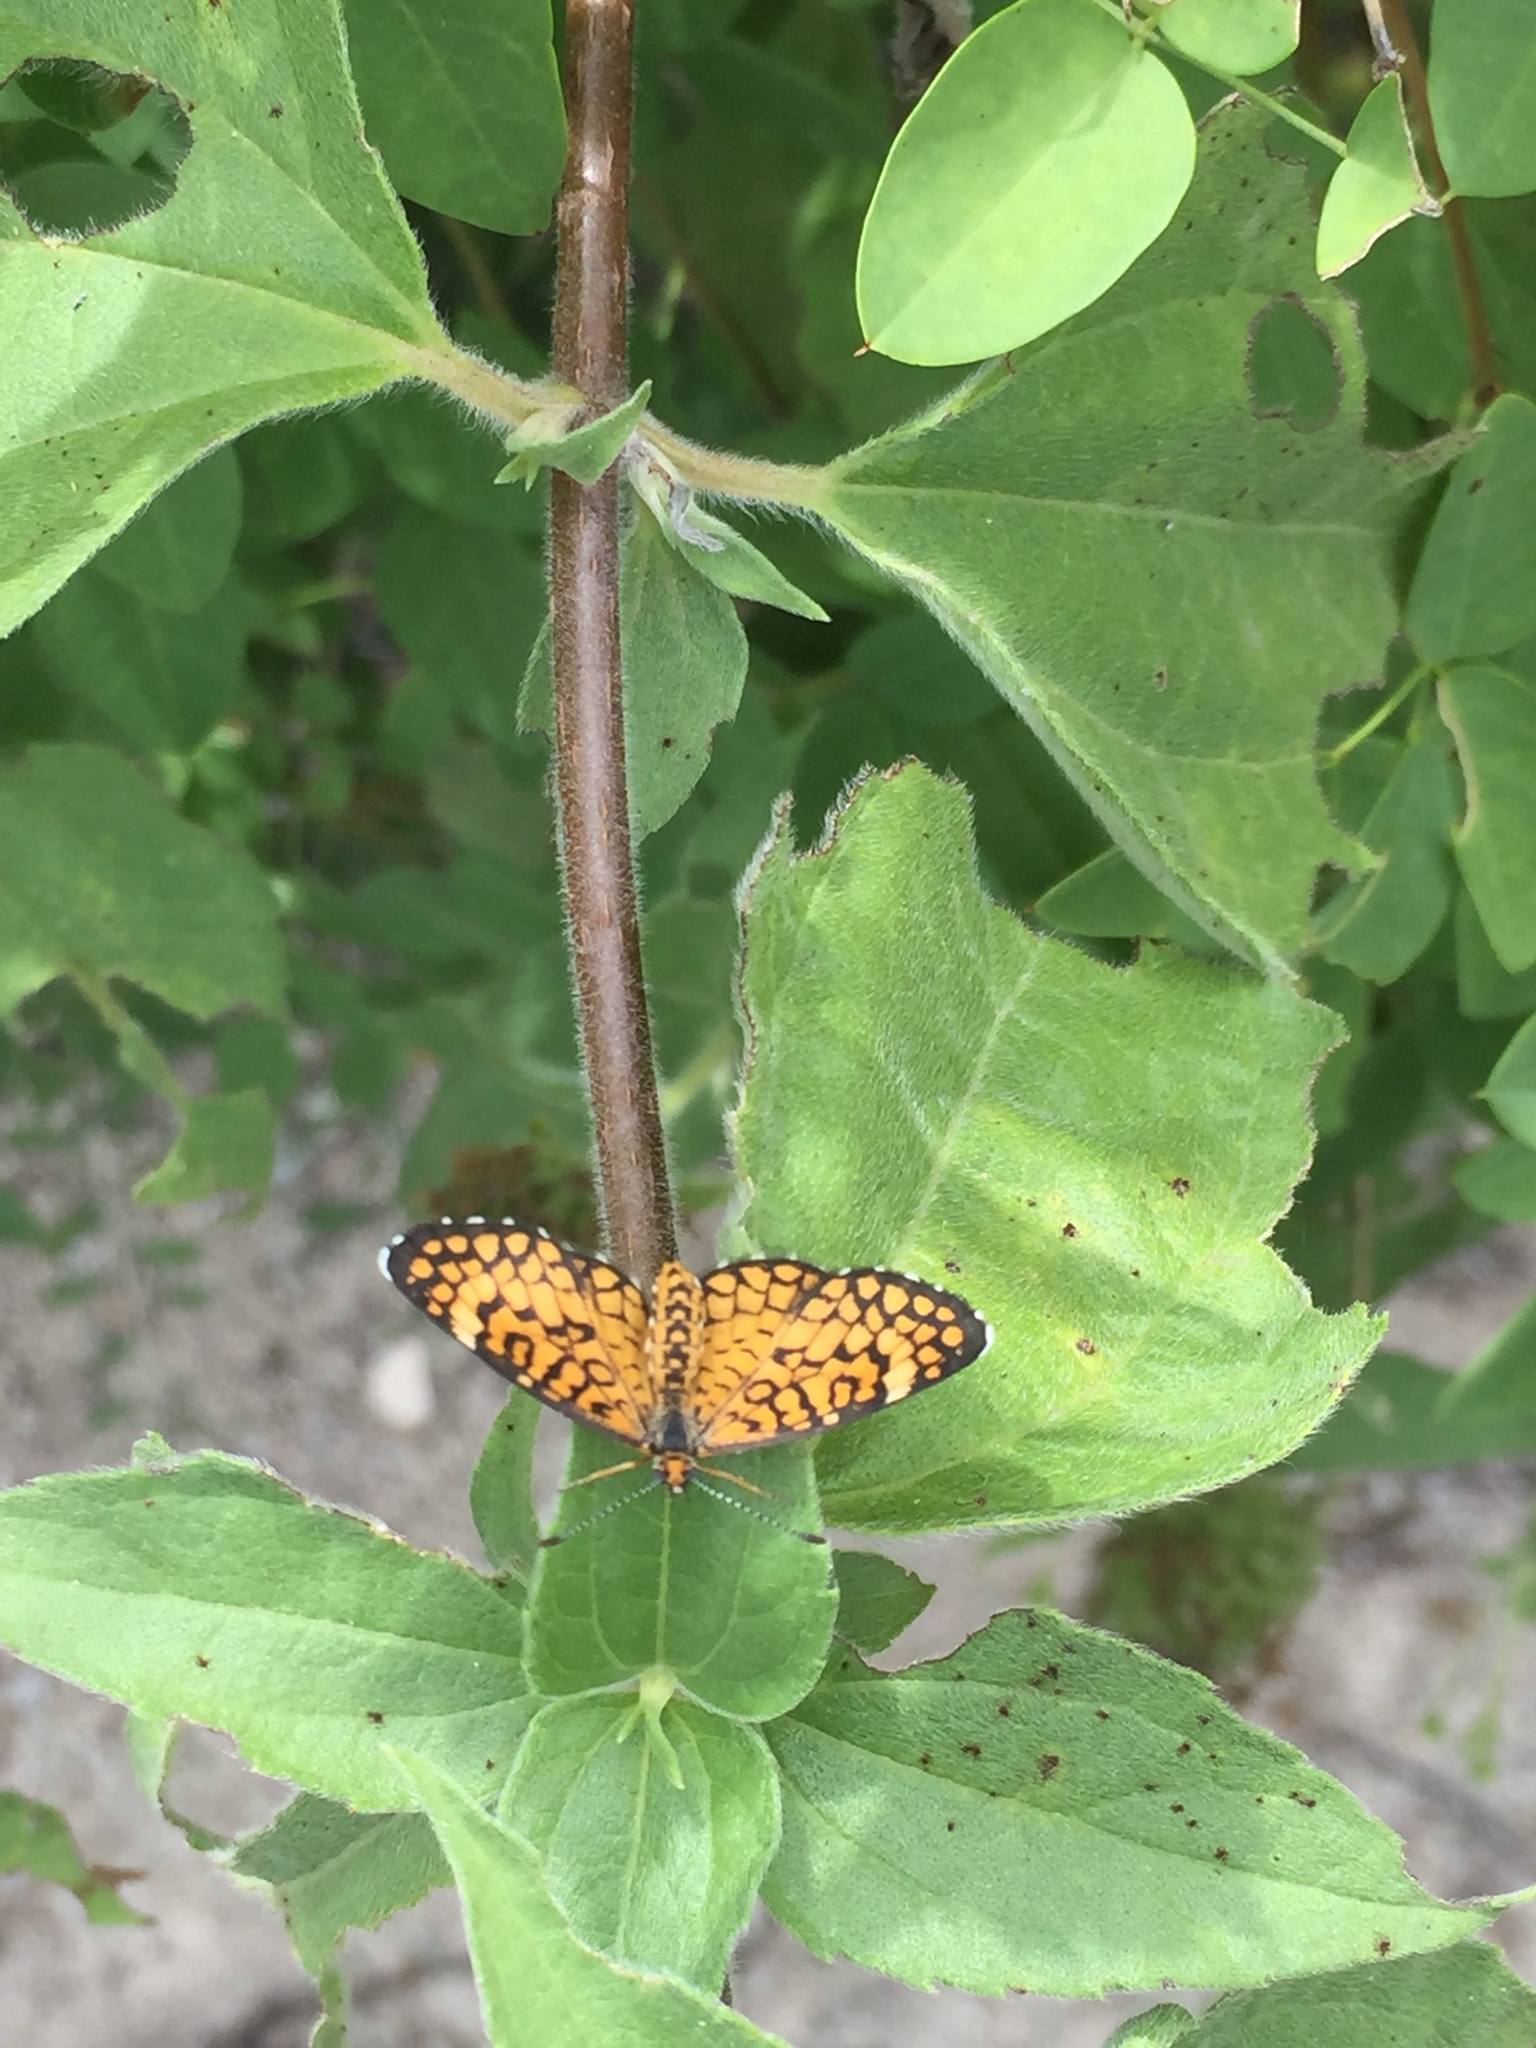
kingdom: Animalia
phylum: Arthropoda
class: Insecta
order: Lepidoptera
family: Nymphalidae
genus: Dymasia
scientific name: Dymasia dymas
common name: Tiny checkerspot
